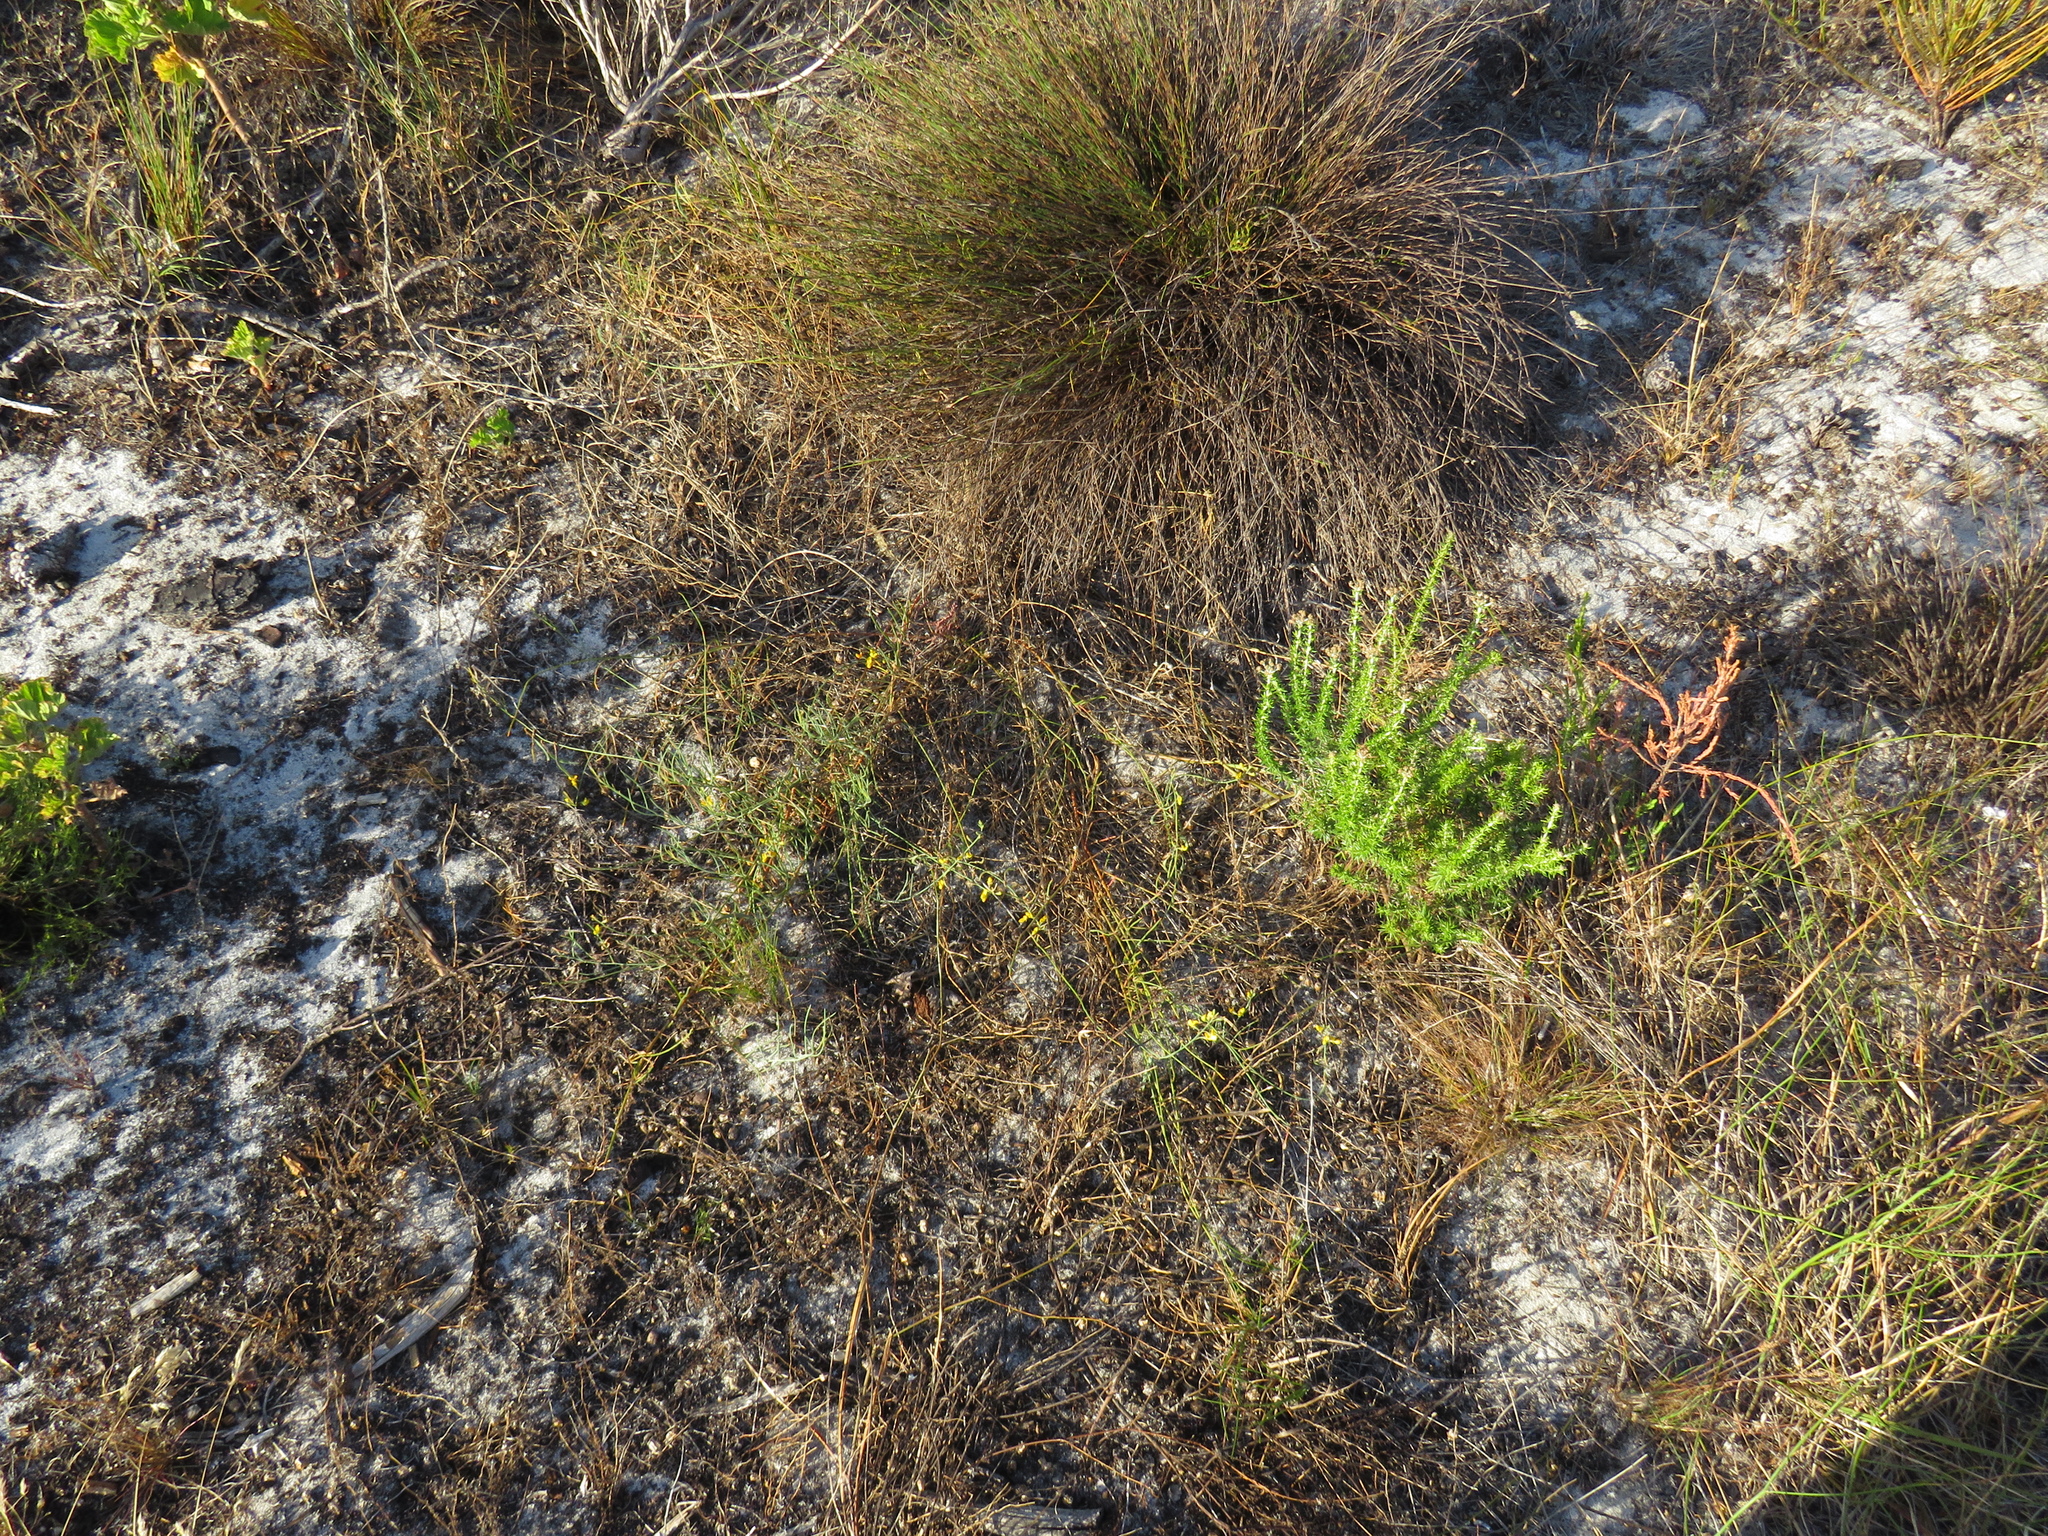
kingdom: Plantae
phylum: Tracheophyta
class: Magnoliopsida
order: Fabales
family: Fabaceae
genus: Lebeckia
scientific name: Lebeckia contaminata
